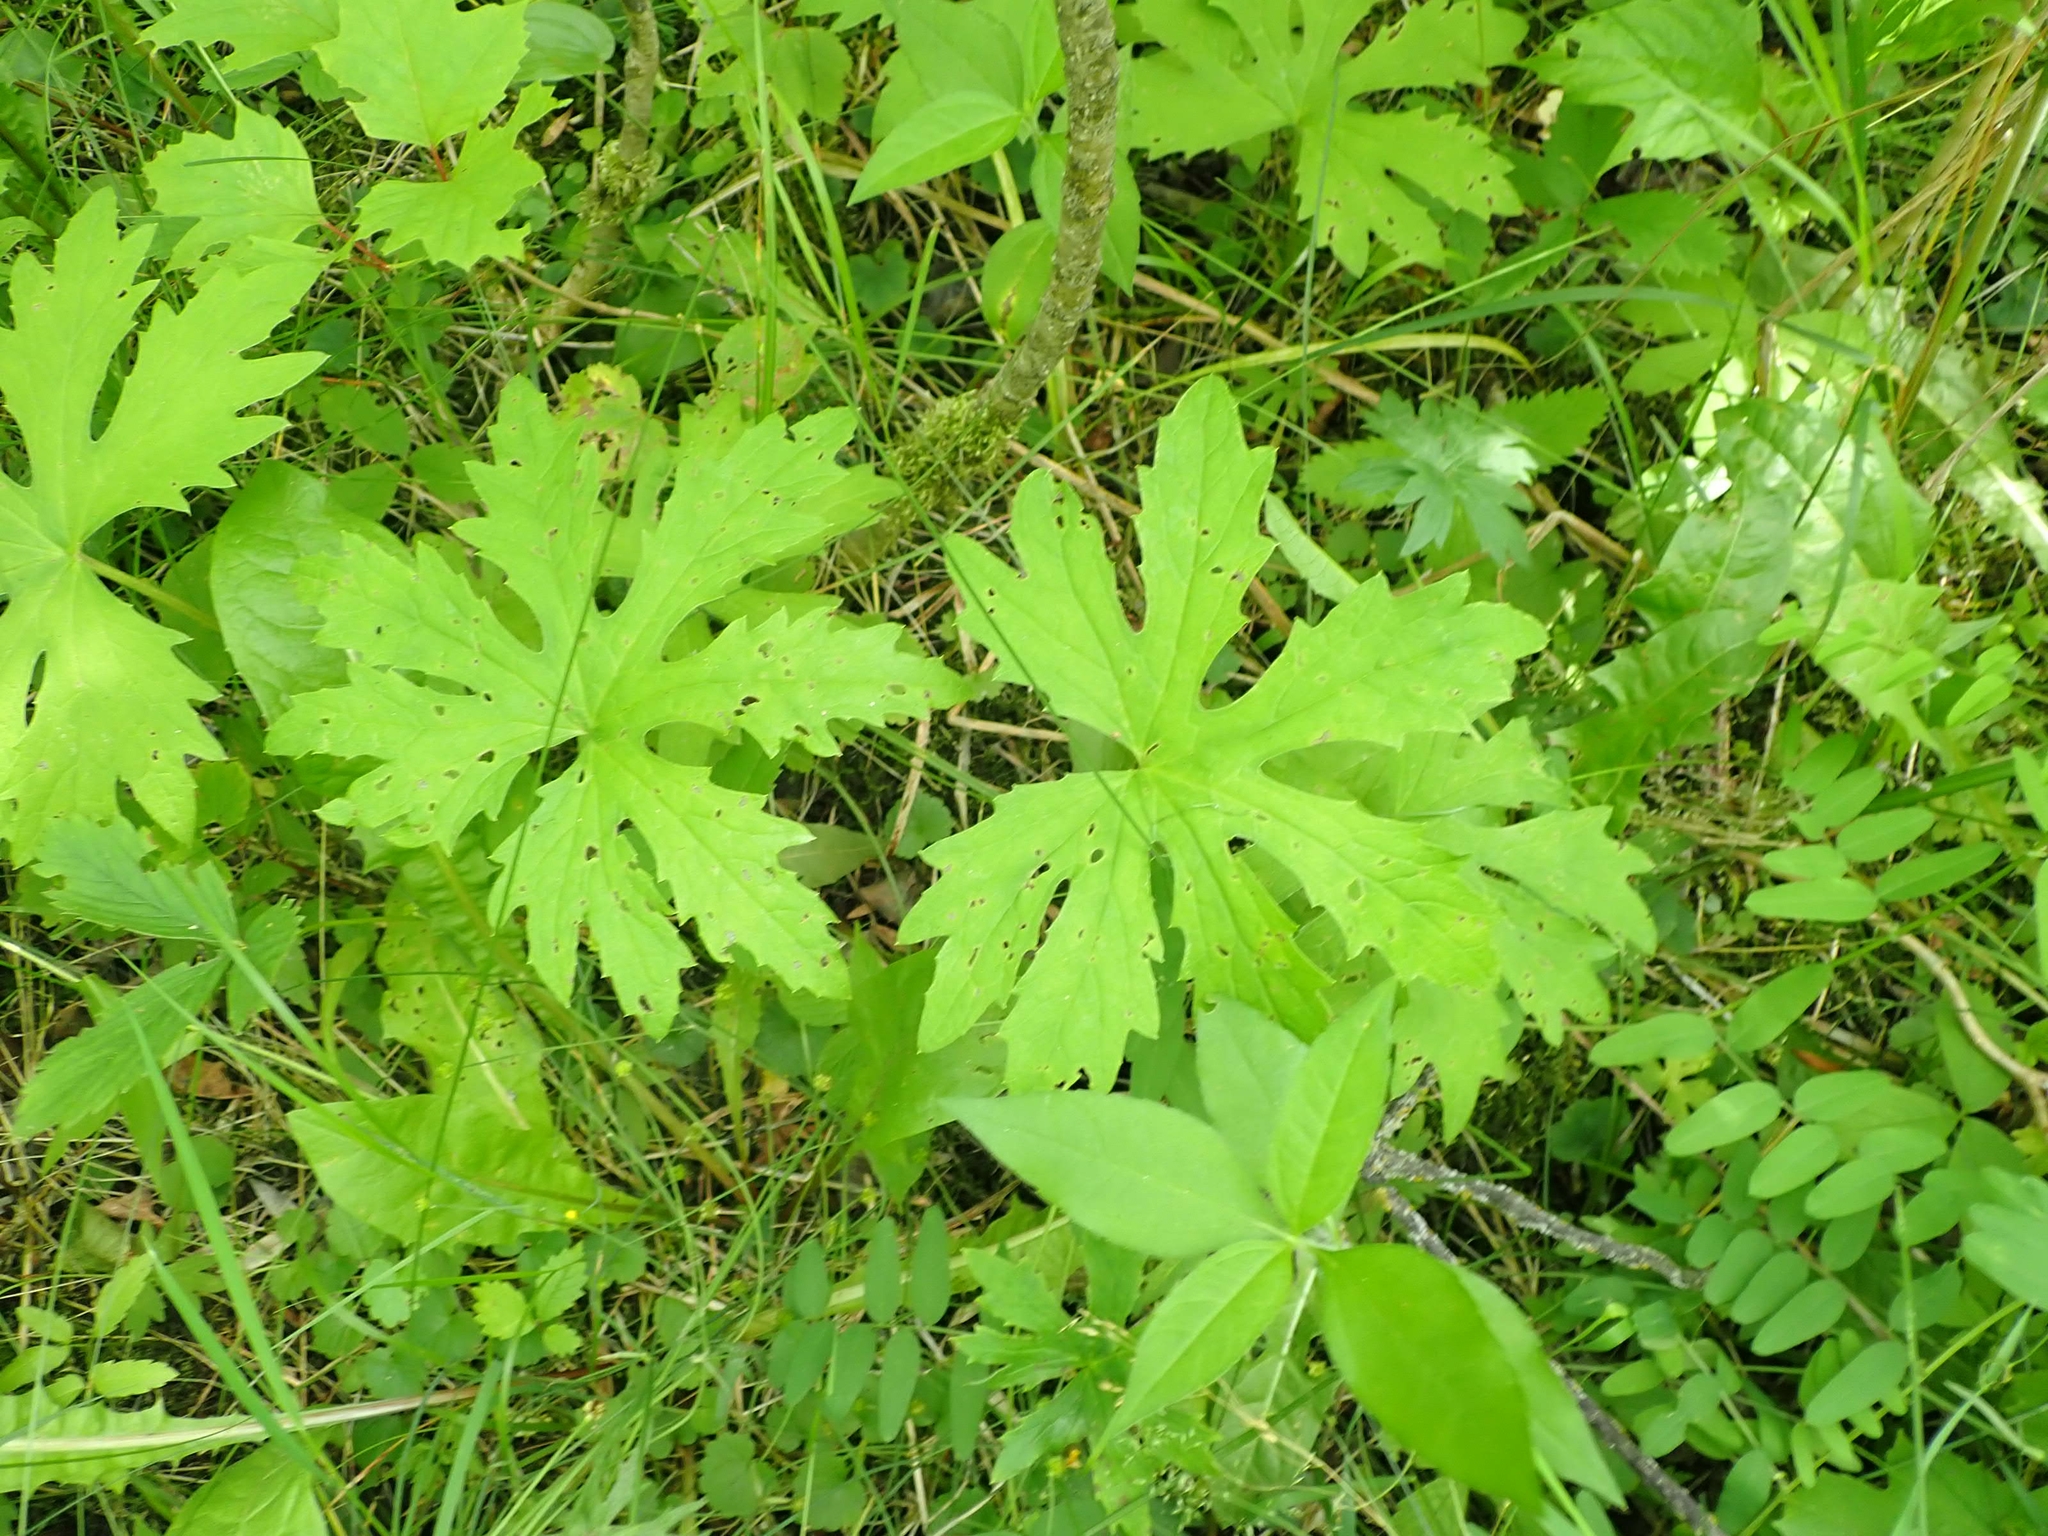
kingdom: Plantae
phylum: Tracheophyta
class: Magnoliopsida
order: Asterales
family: Asteraceae
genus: Petasites
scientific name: Petasites frigidus
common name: Arctic butterbur
